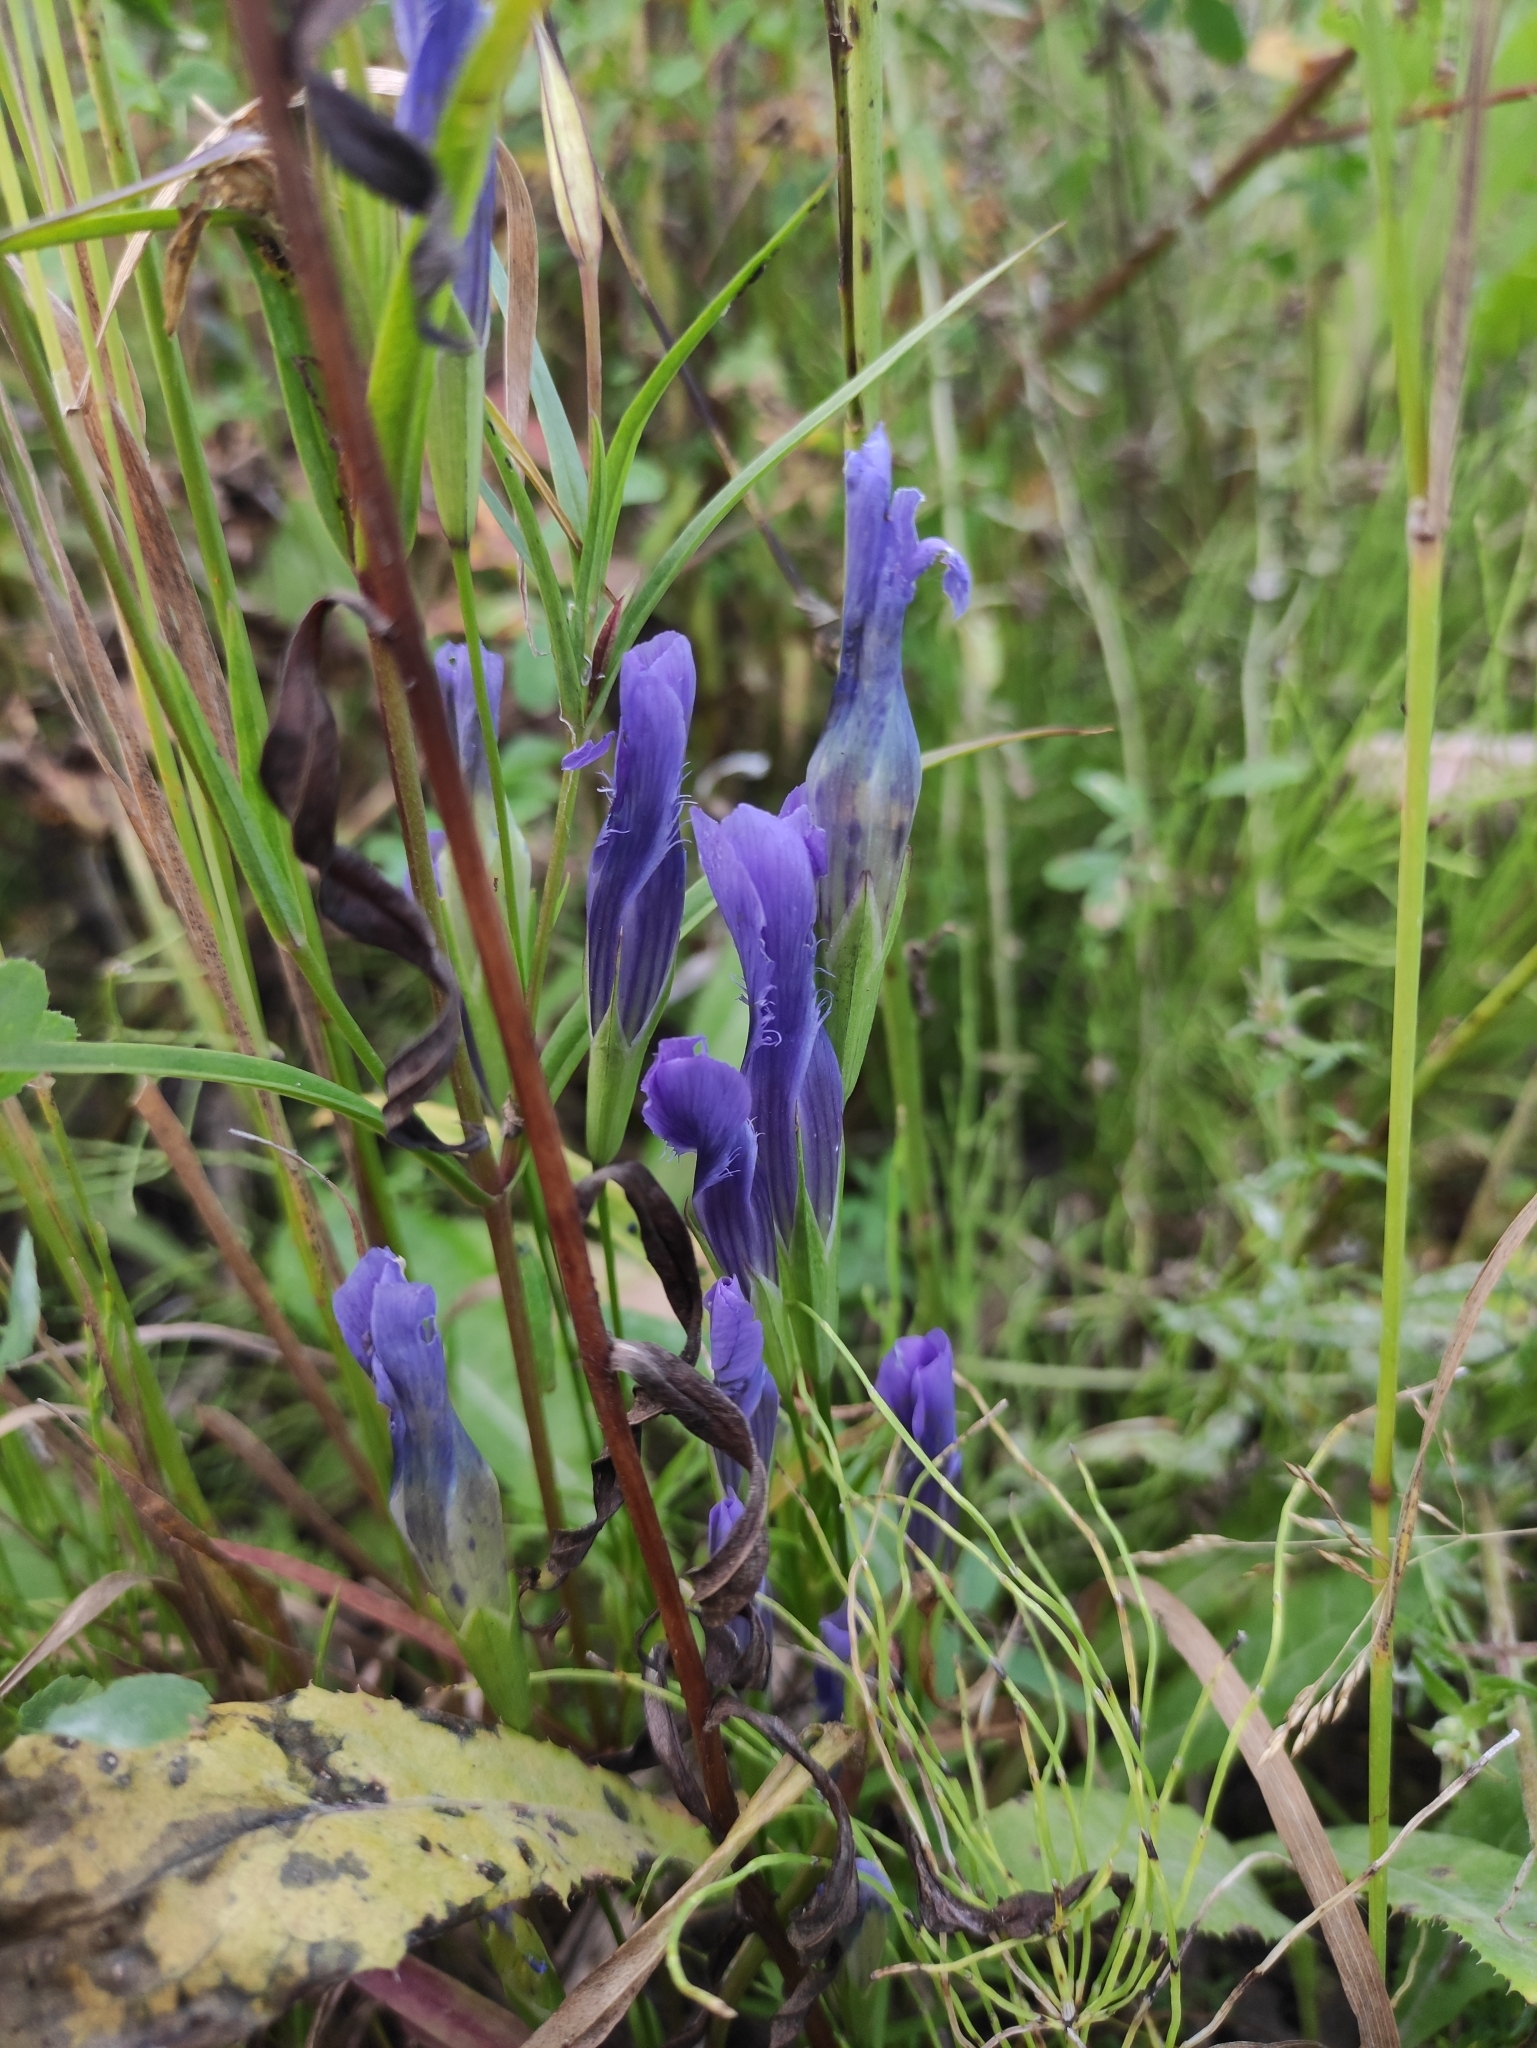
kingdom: Plantae
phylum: Tracheophyta
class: Magnoliopsida
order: Gentianales
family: Gentianaceae
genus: Gentianopsis
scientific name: Gentianopsis barbata
